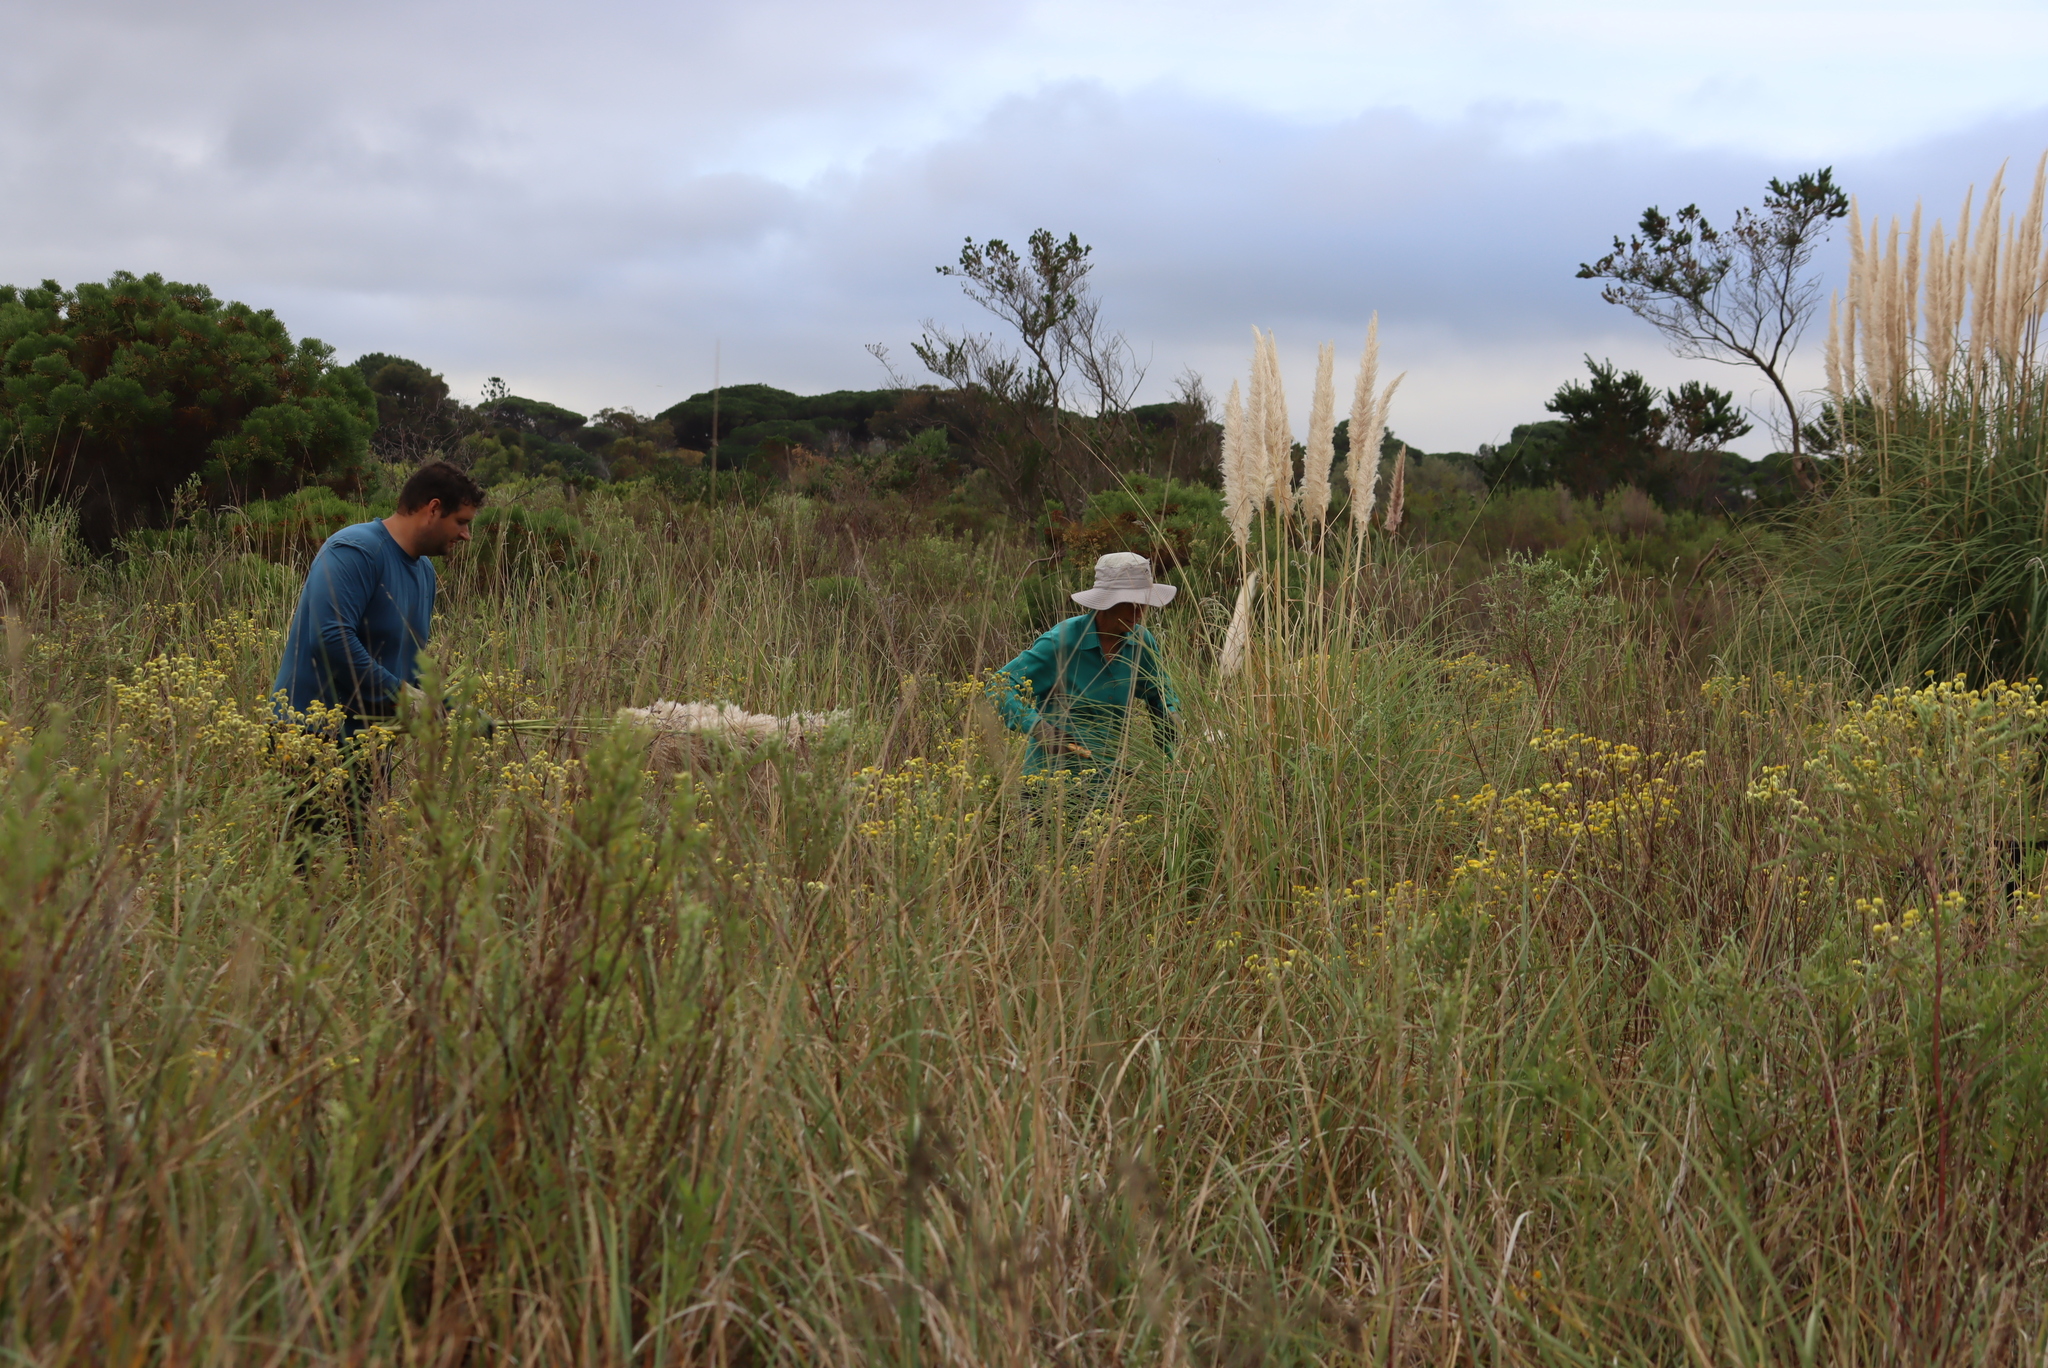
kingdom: Plantae
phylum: Tracheophyta
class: Liliopsida
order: Poales
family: Poaceae
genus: Cortaderia
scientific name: Cortaderia selloana
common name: Uruguayan pampas grass
